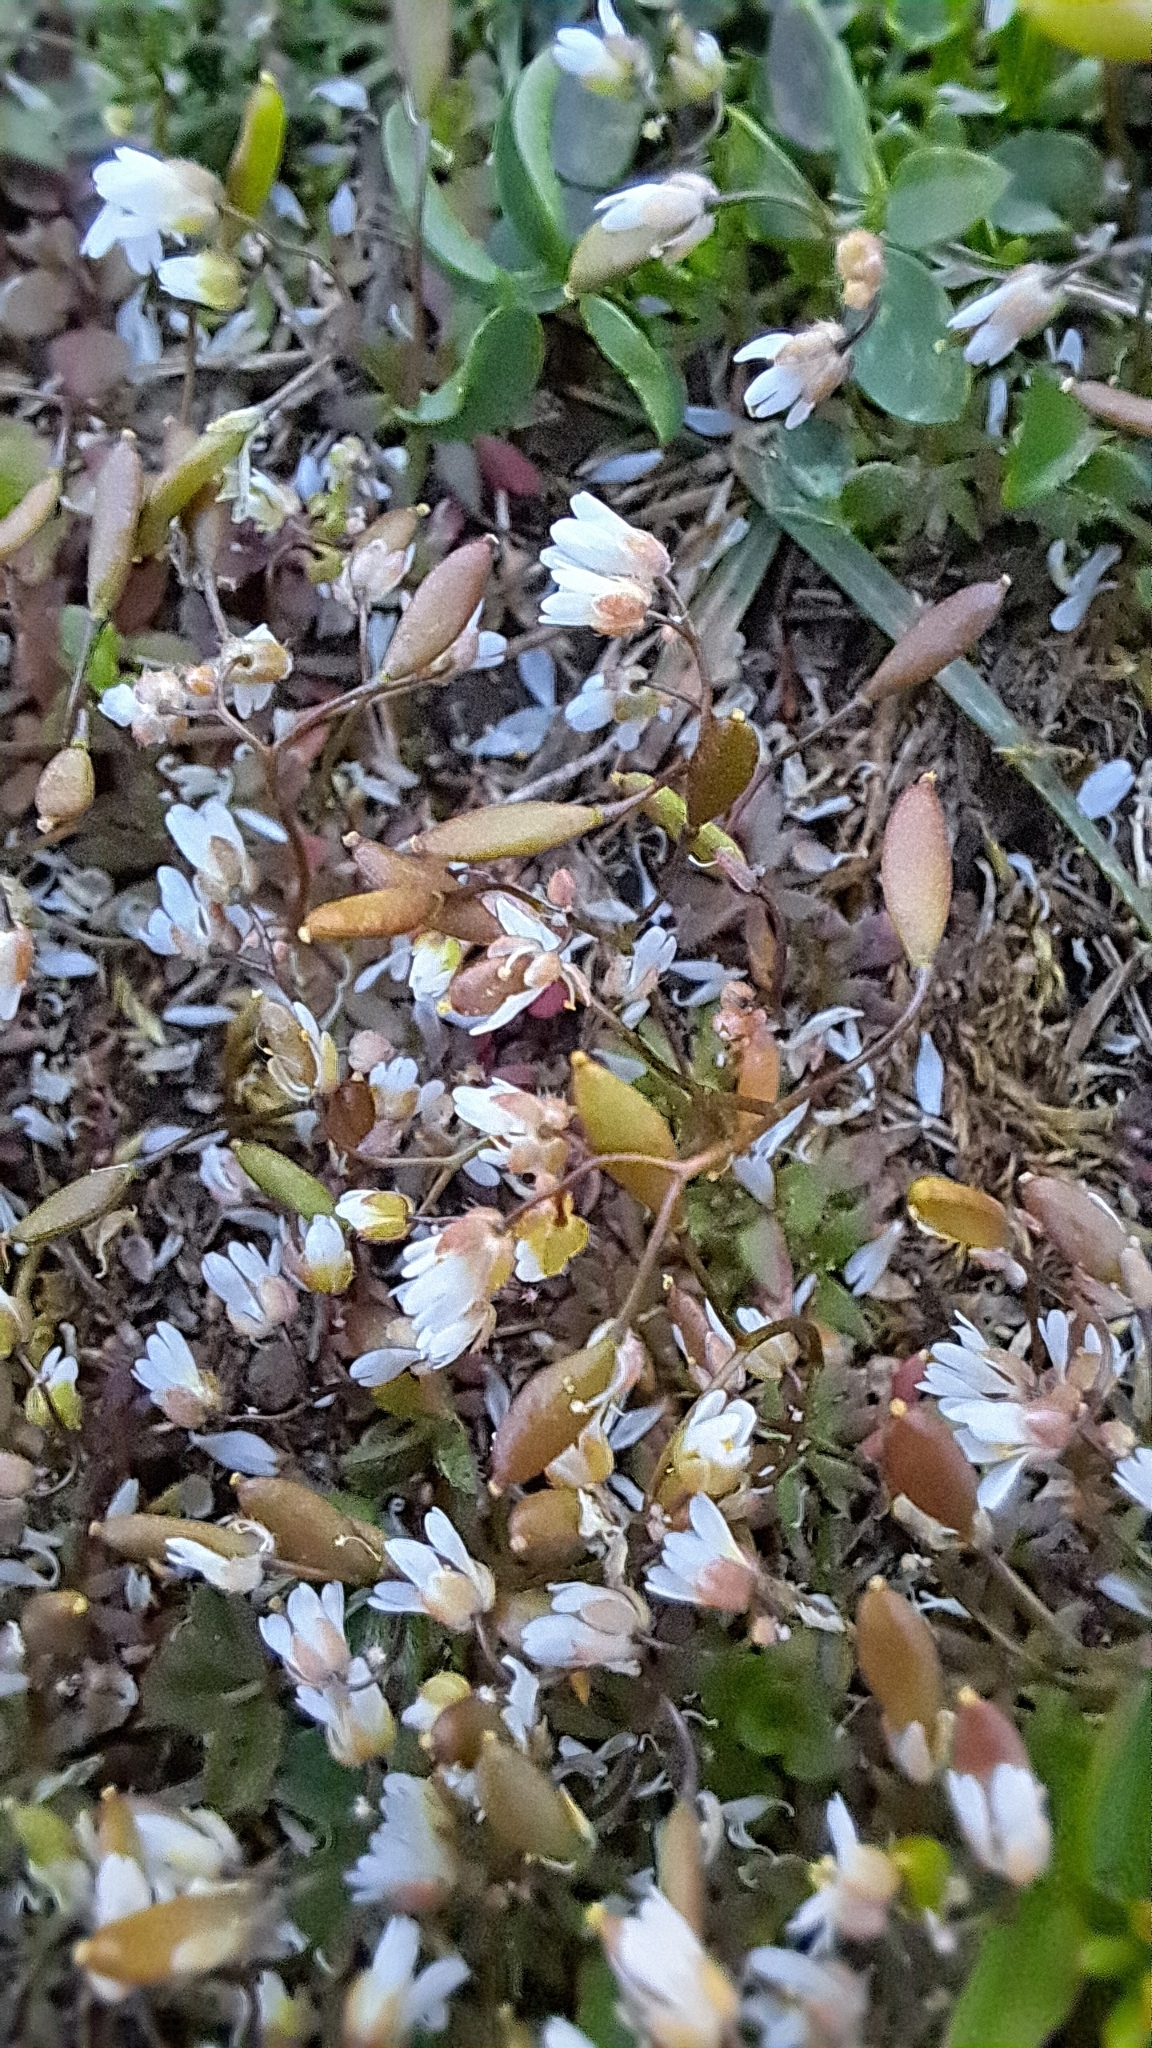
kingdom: Plantae
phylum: Tracheophyta
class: Magnoliopsida
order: Brassicales
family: Brassicaceae
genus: Draba
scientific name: Draba verna
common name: Spring draba
